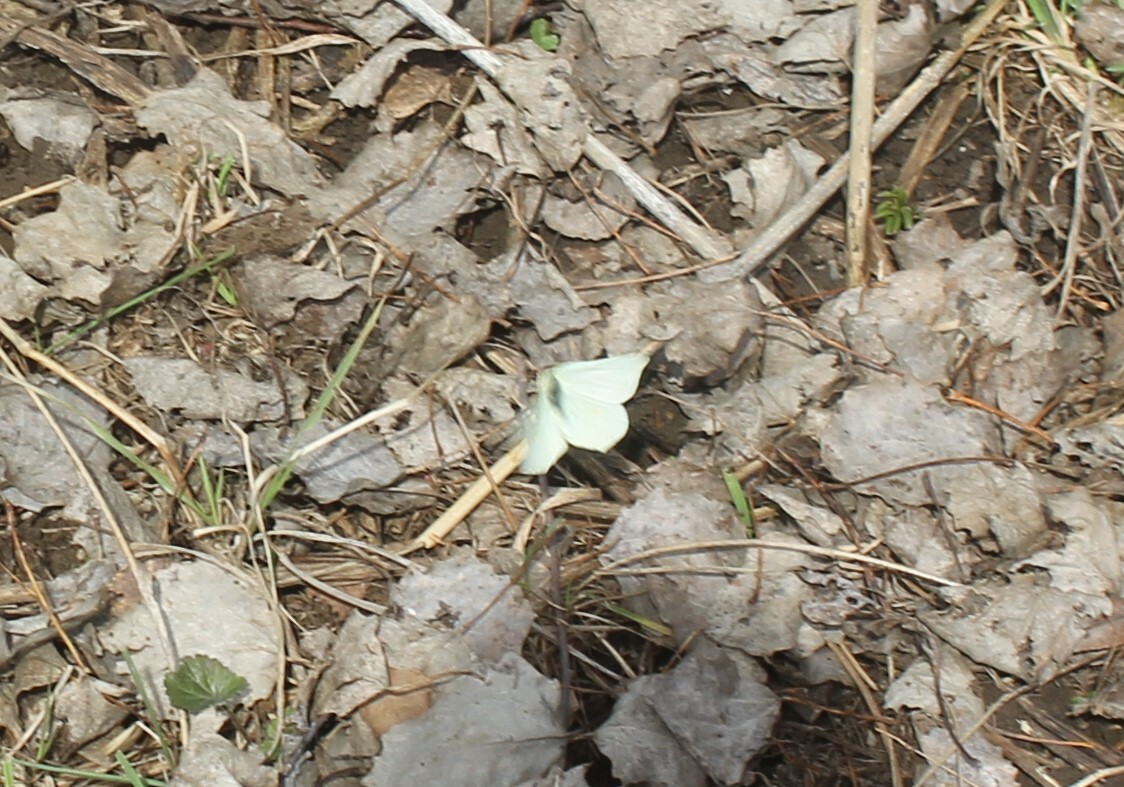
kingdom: Animalia
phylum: Arthropoda
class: Insecta
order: Lepidoptera
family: Pieridae
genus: Gonepteryx
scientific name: Gonepteryx rhamni
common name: Brimstone
